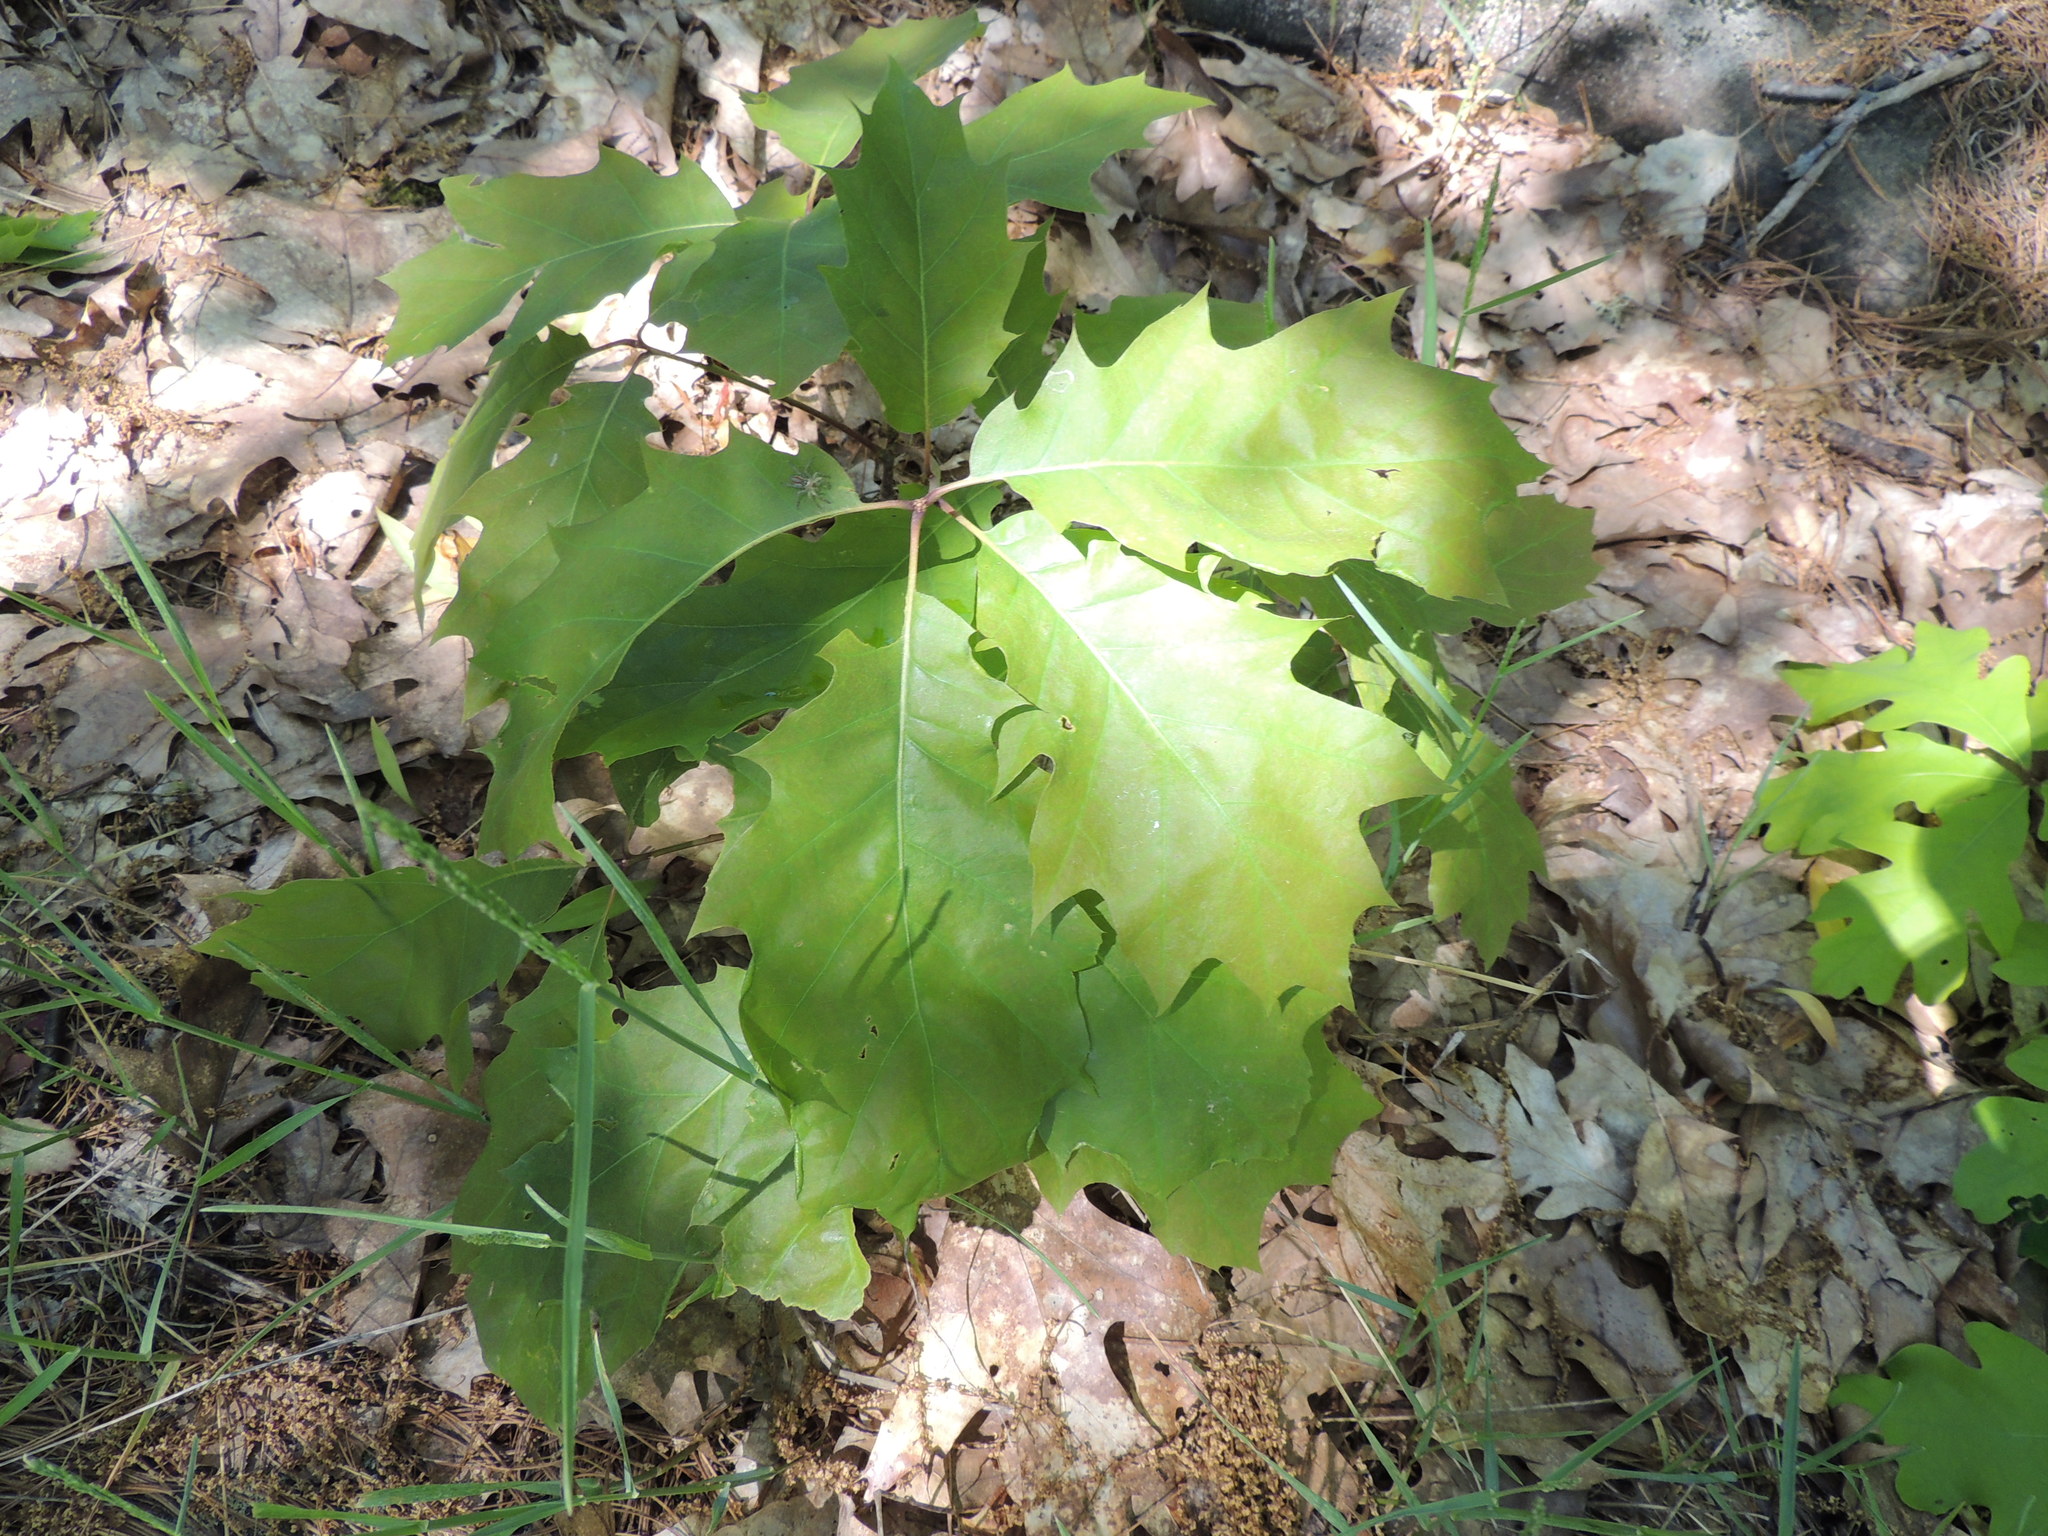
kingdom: Plantae
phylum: Tracheophyta
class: Magnoliopsida
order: Fagales
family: Fagaceae
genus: Quercus
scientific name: Quercus rubra
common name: Red oak
